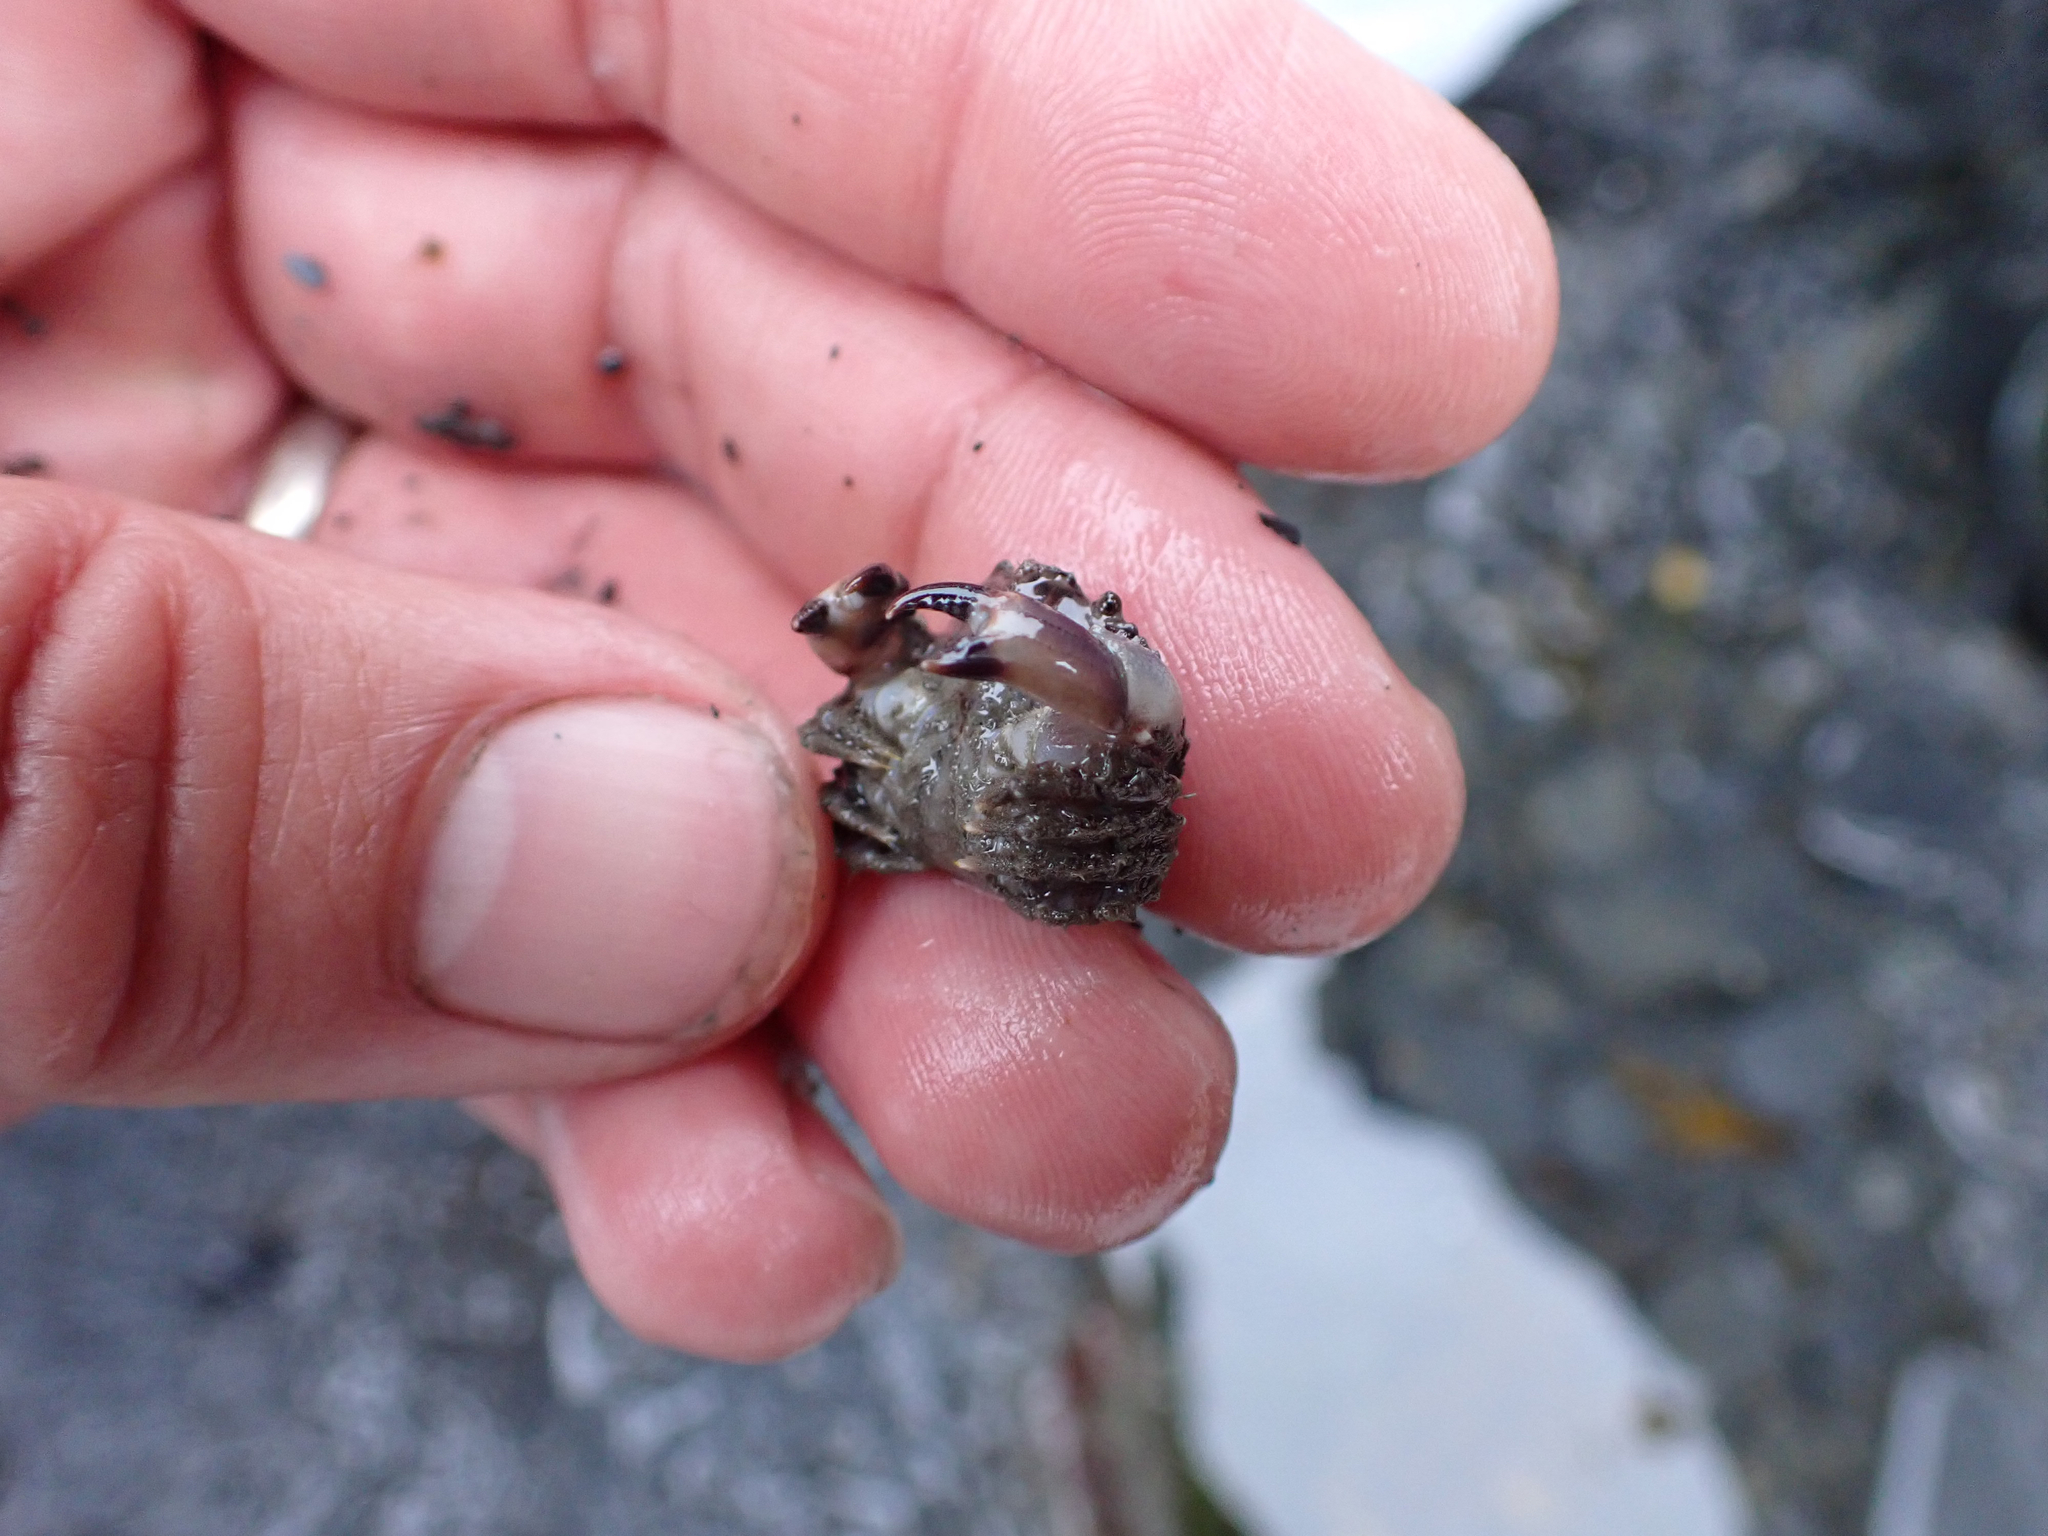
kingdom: Animalia
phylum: Arthropoda
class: Malacostraca
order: Decapoda
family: Cancridae
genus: Glebocarcinus
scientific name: Glebocarcinus oregonensis
